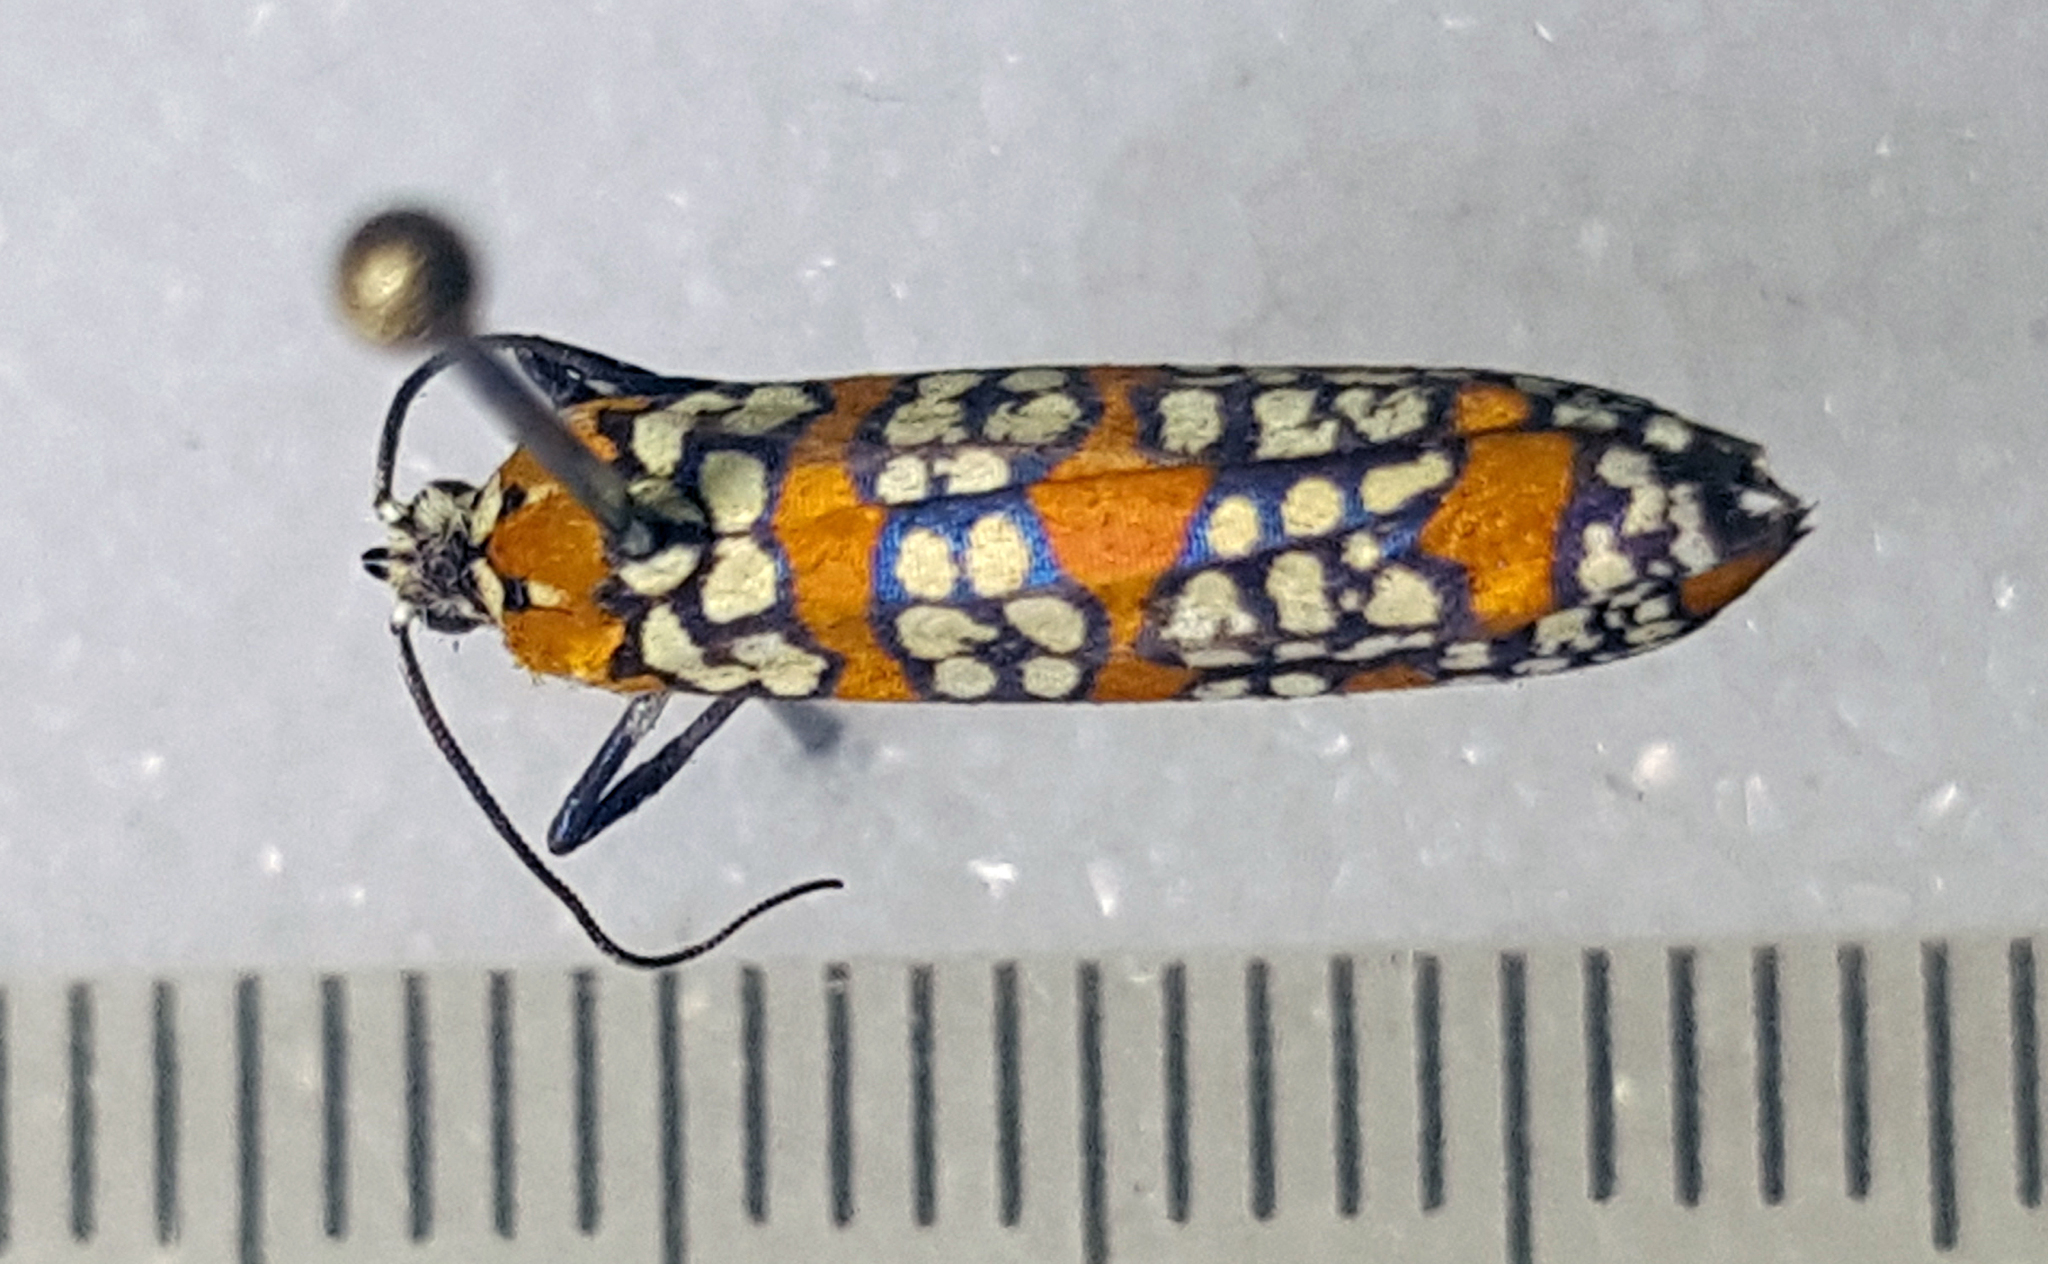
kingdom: Animalia
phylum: Arthropoda
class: Insecta
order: Lepidoptera
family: Attevidae
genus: Atteva
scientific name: Atteva punctella
